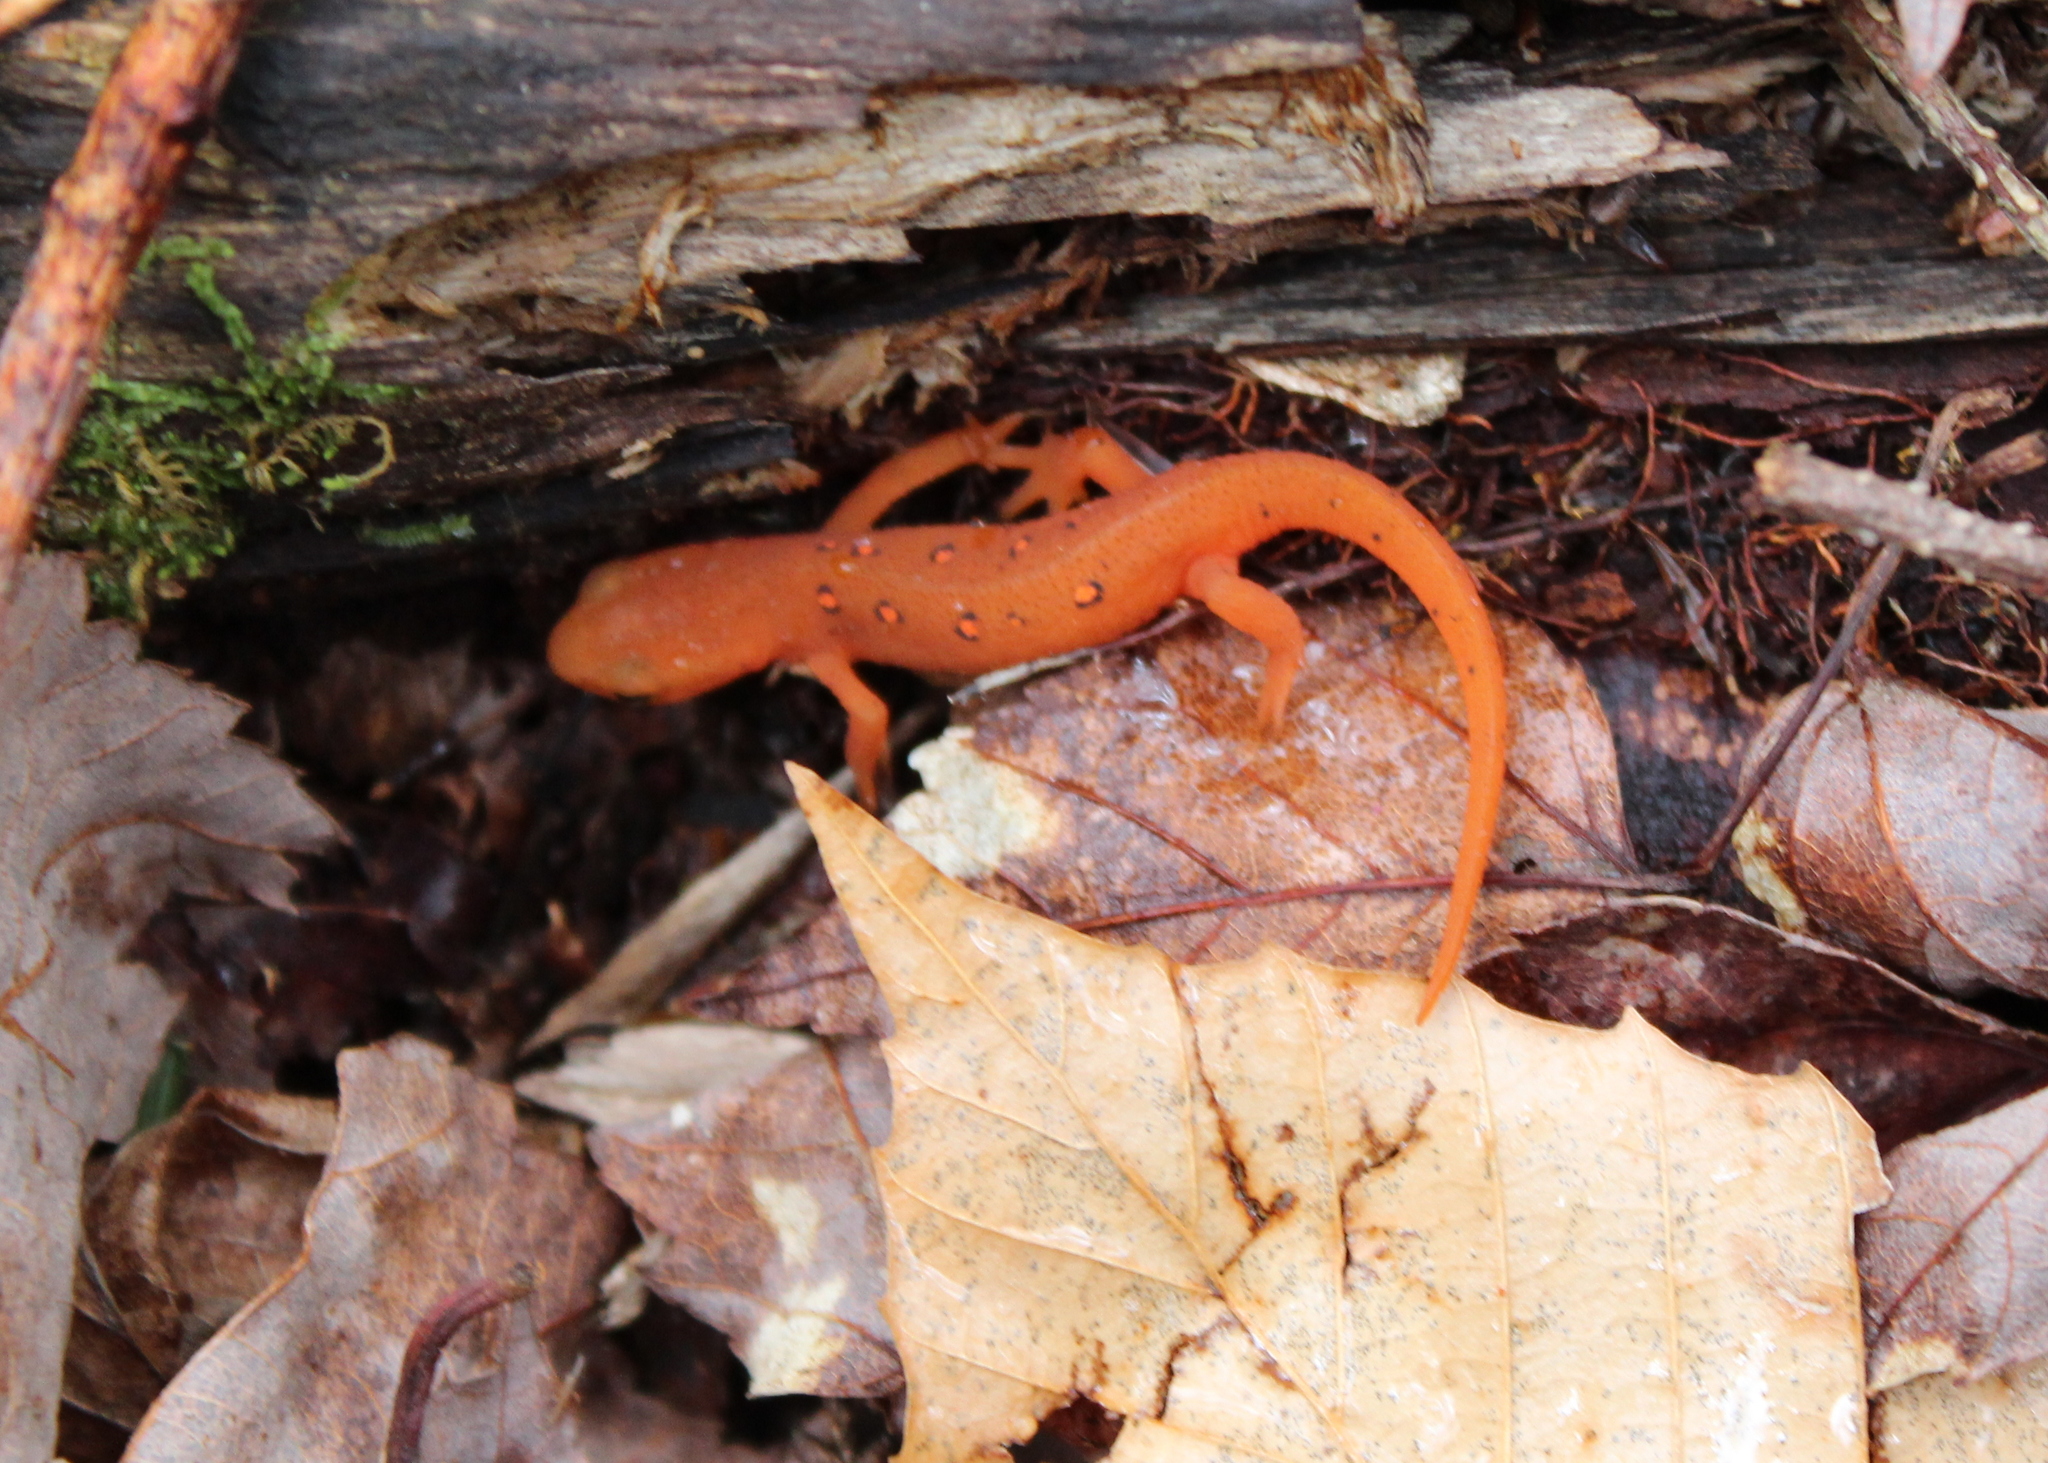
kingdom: Animalia
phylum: Chordata
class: Amphibia
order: Caudata
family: Salamandridae
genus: Notophthalmus
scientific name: Notophthalmus viridescens
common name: Eastern newt
